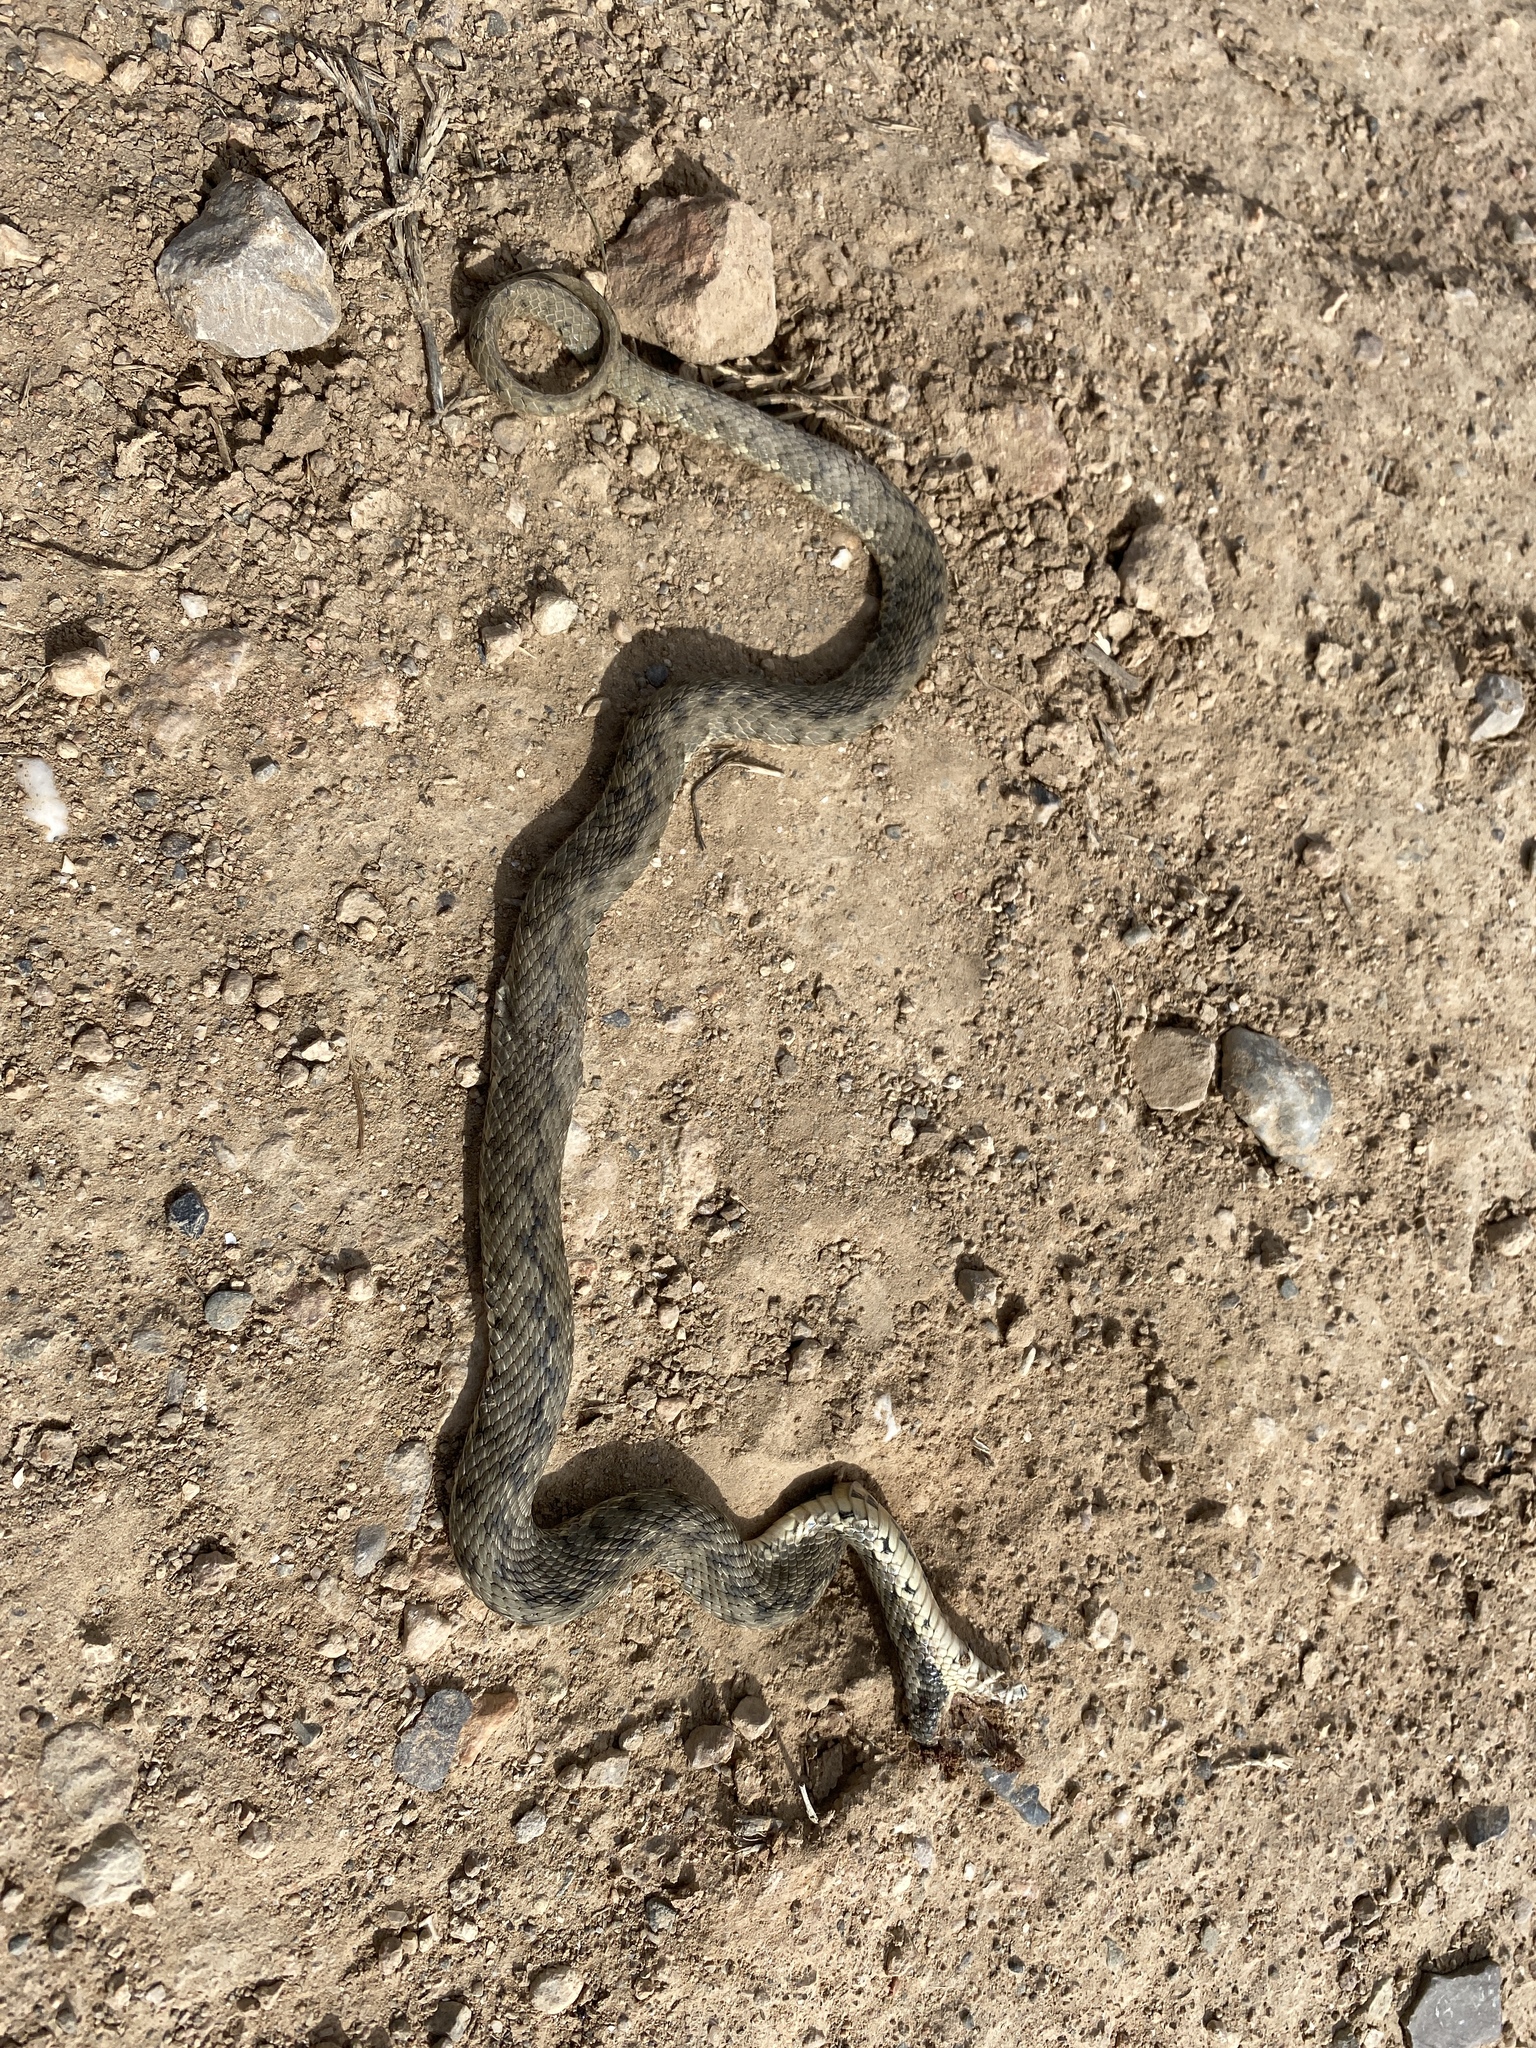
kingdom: Animalia
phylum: Chordata
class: Squamata
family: Colubridae
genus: Natrix
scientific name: Natrix maura
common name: Viperine water snake
